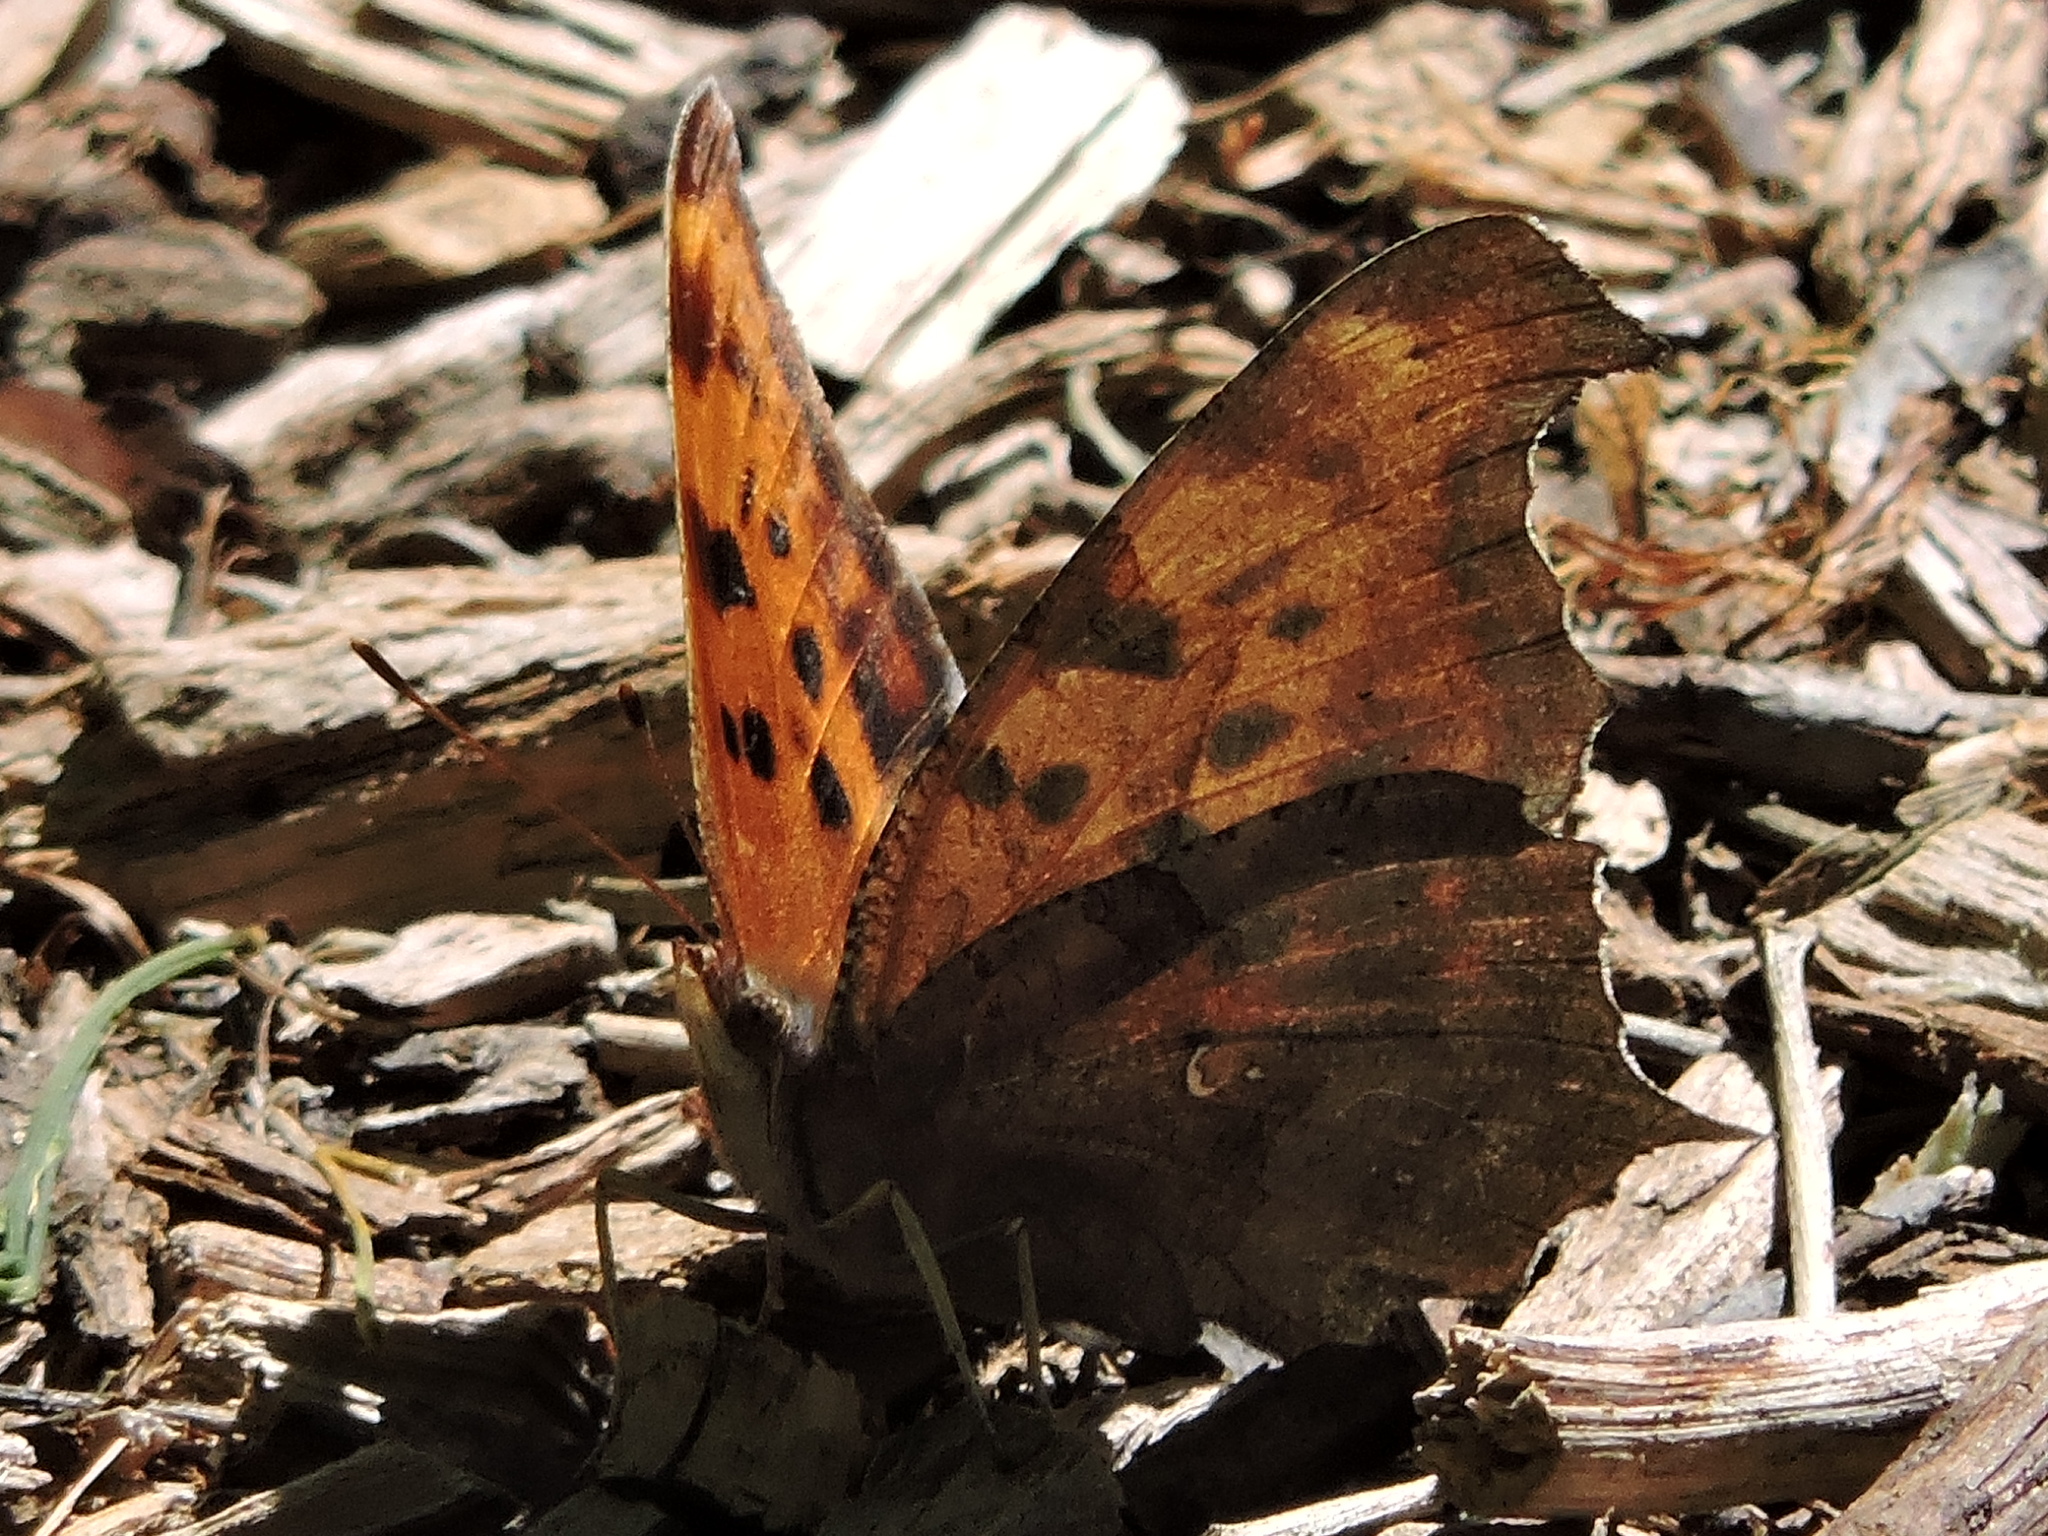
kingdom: Animalia
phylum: Arthropoda
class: Insecta
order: Lepidoptera
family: Nymphalidae
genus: Polygonia
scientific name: Polygonia interrogationis
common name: Question mark
